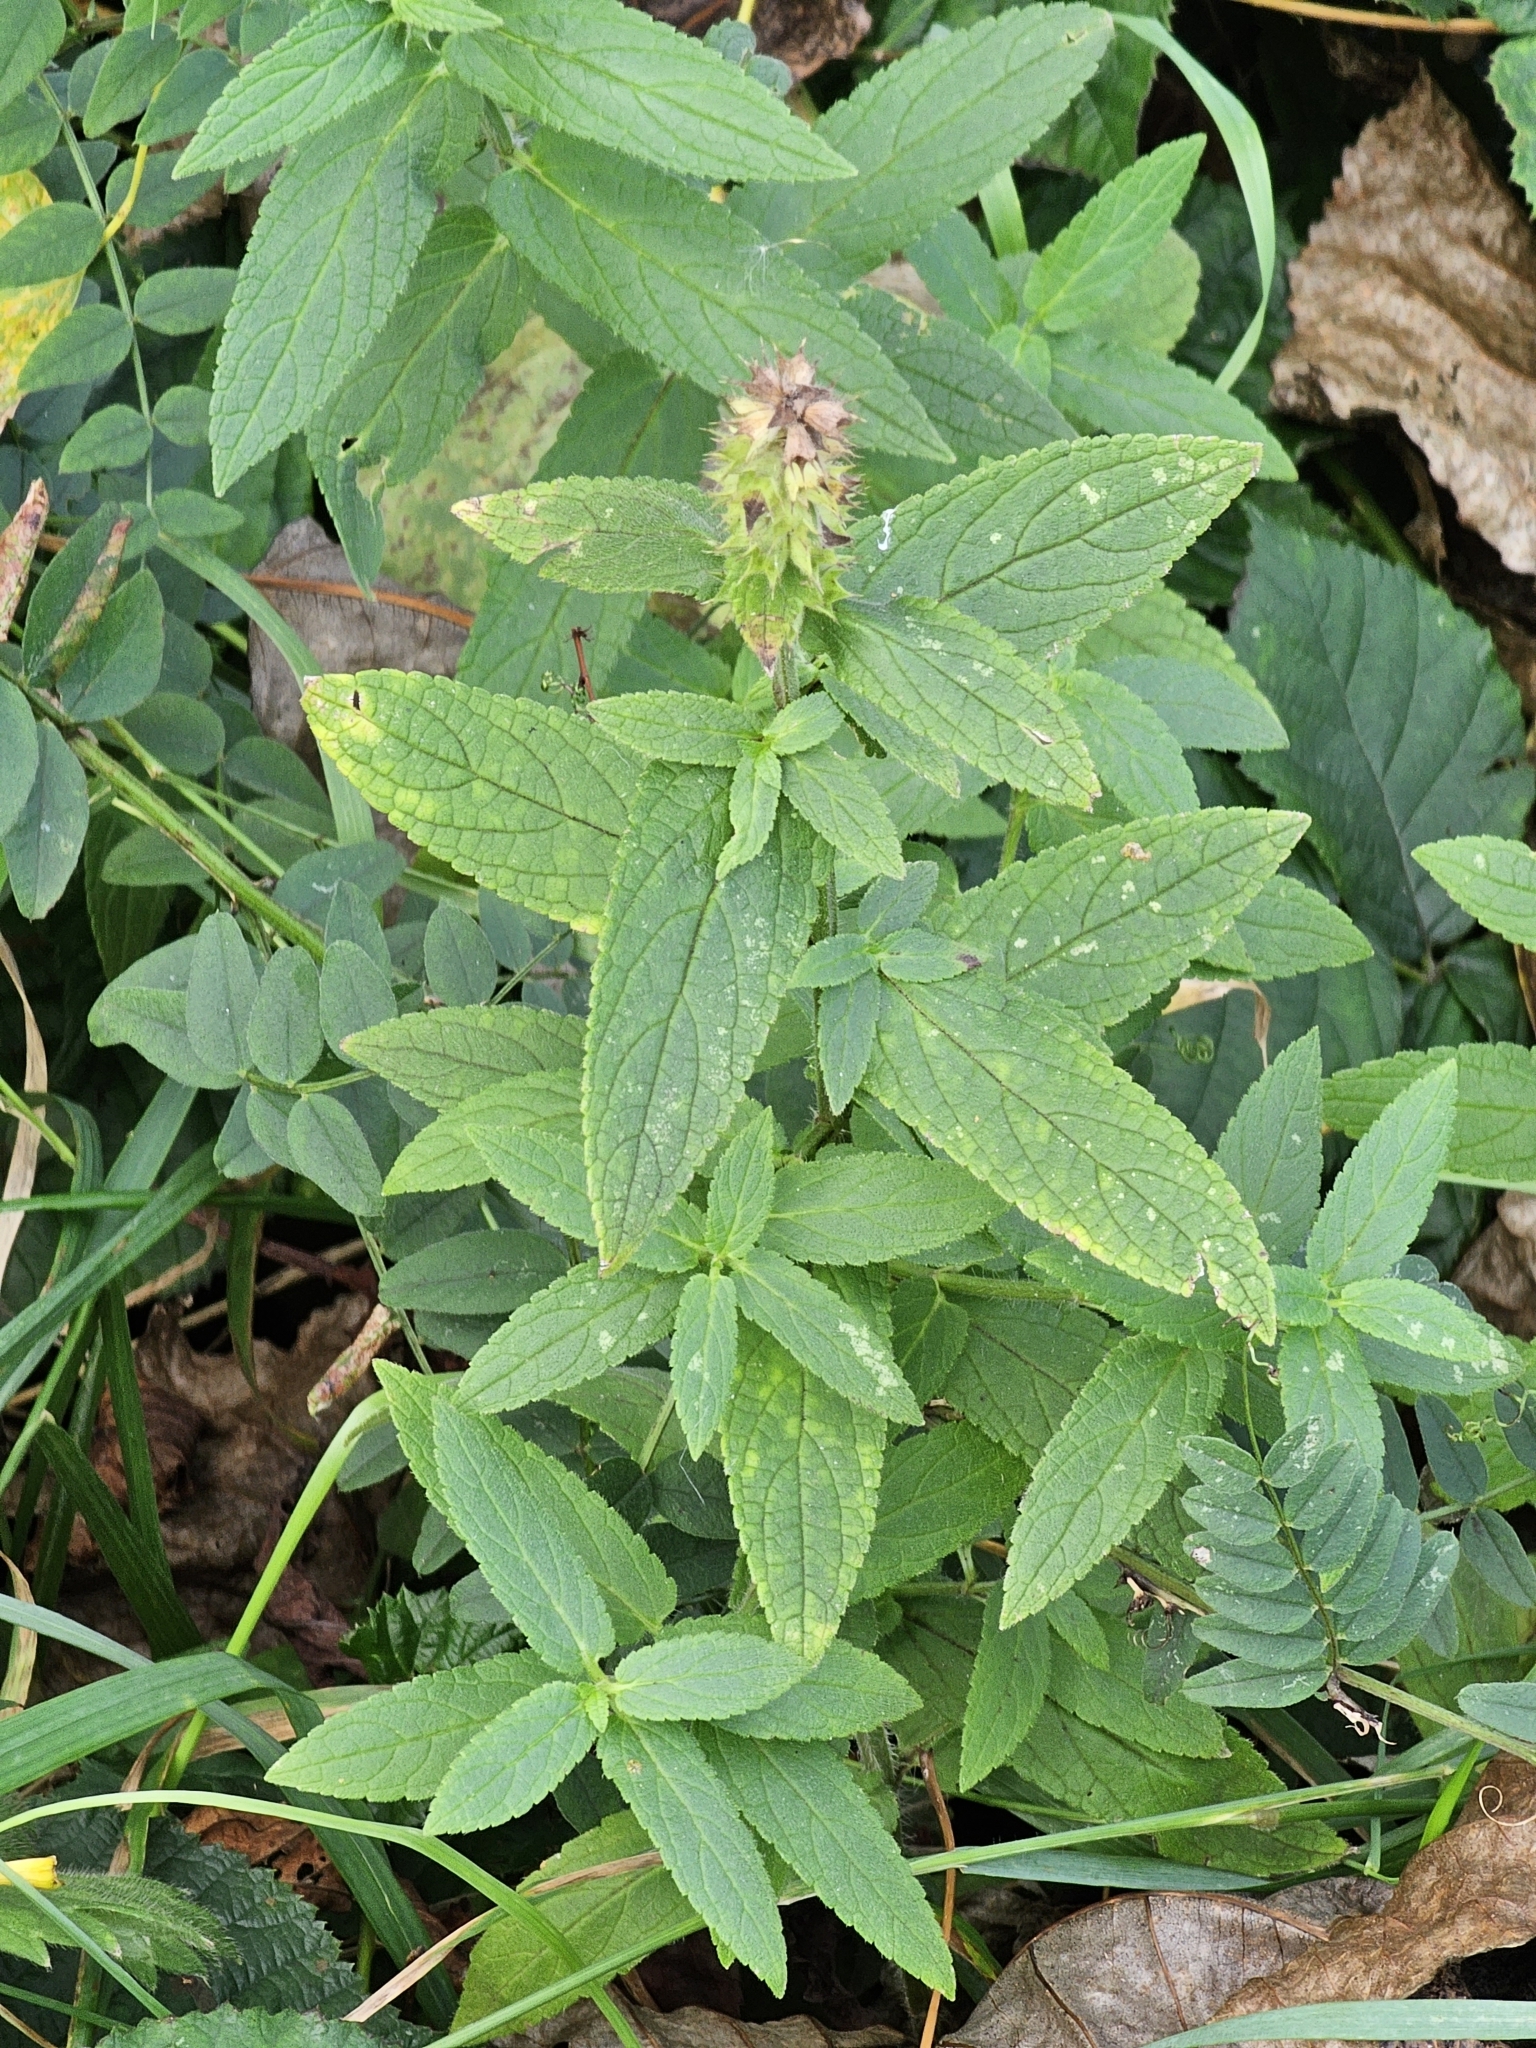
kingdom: Plantae
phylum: Tracheophyta
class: Magnoliopsida
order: Lamiales
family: Lamiaceae
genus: Stachys
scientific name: Stachys palustris
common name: Marsh woundwort
